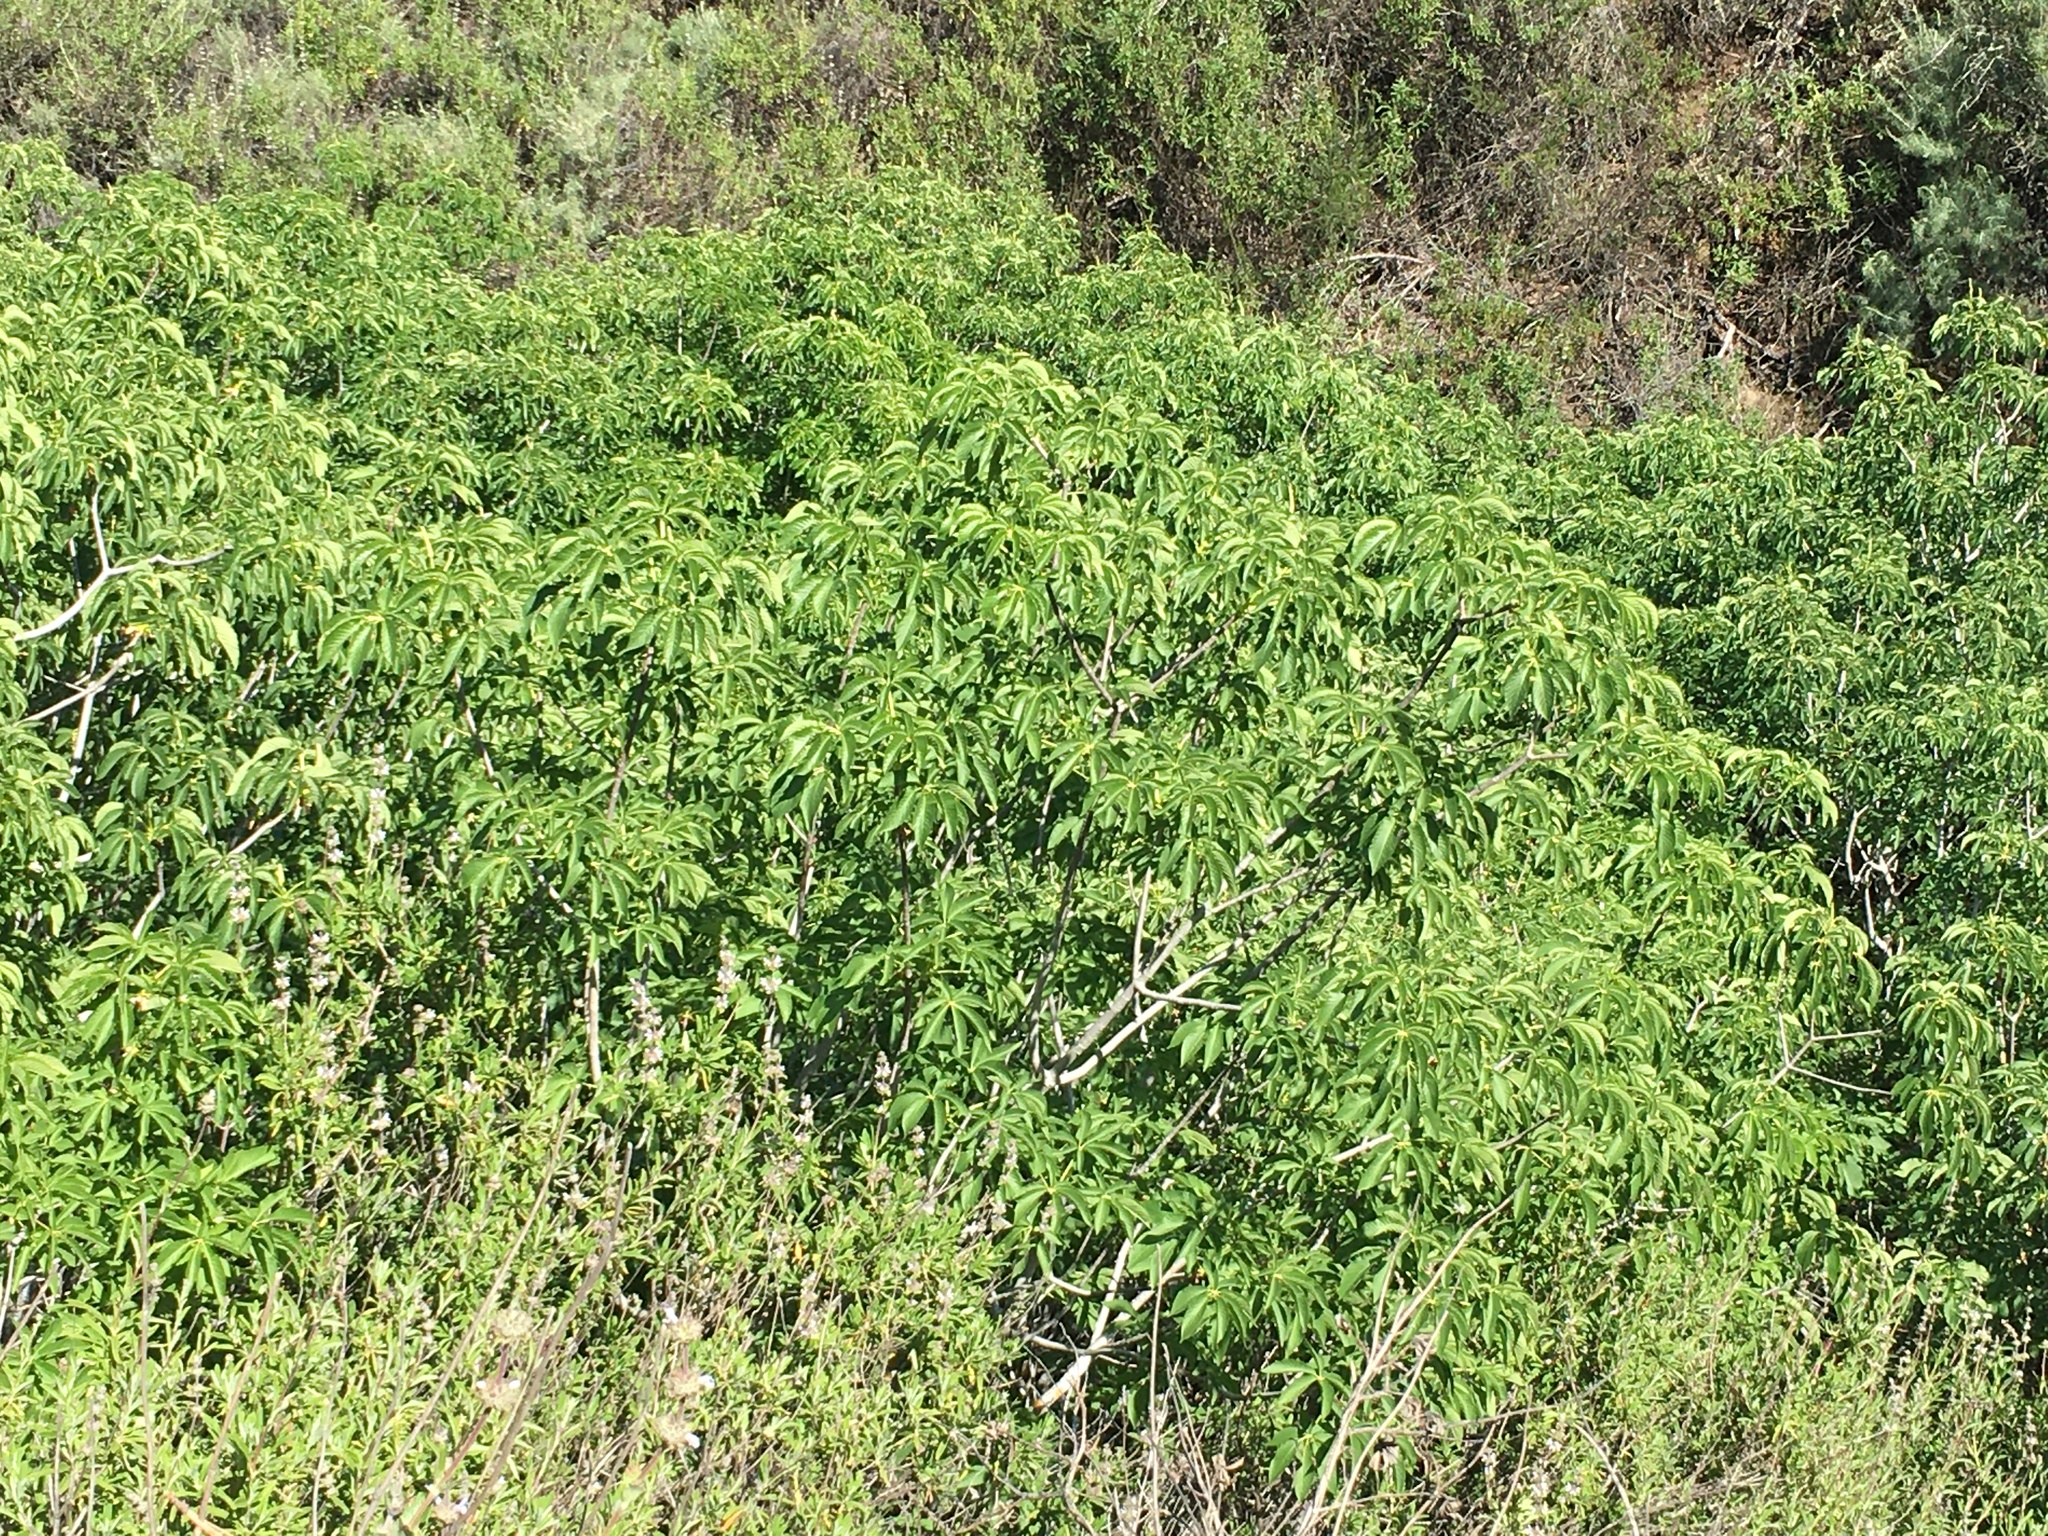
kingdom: Plantae
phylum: Tracheophyta
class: Magnoliopsida
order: Sapindales
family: Sapindaceae
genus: Aesculus
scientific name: Aesculus californica
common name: California buckeye
